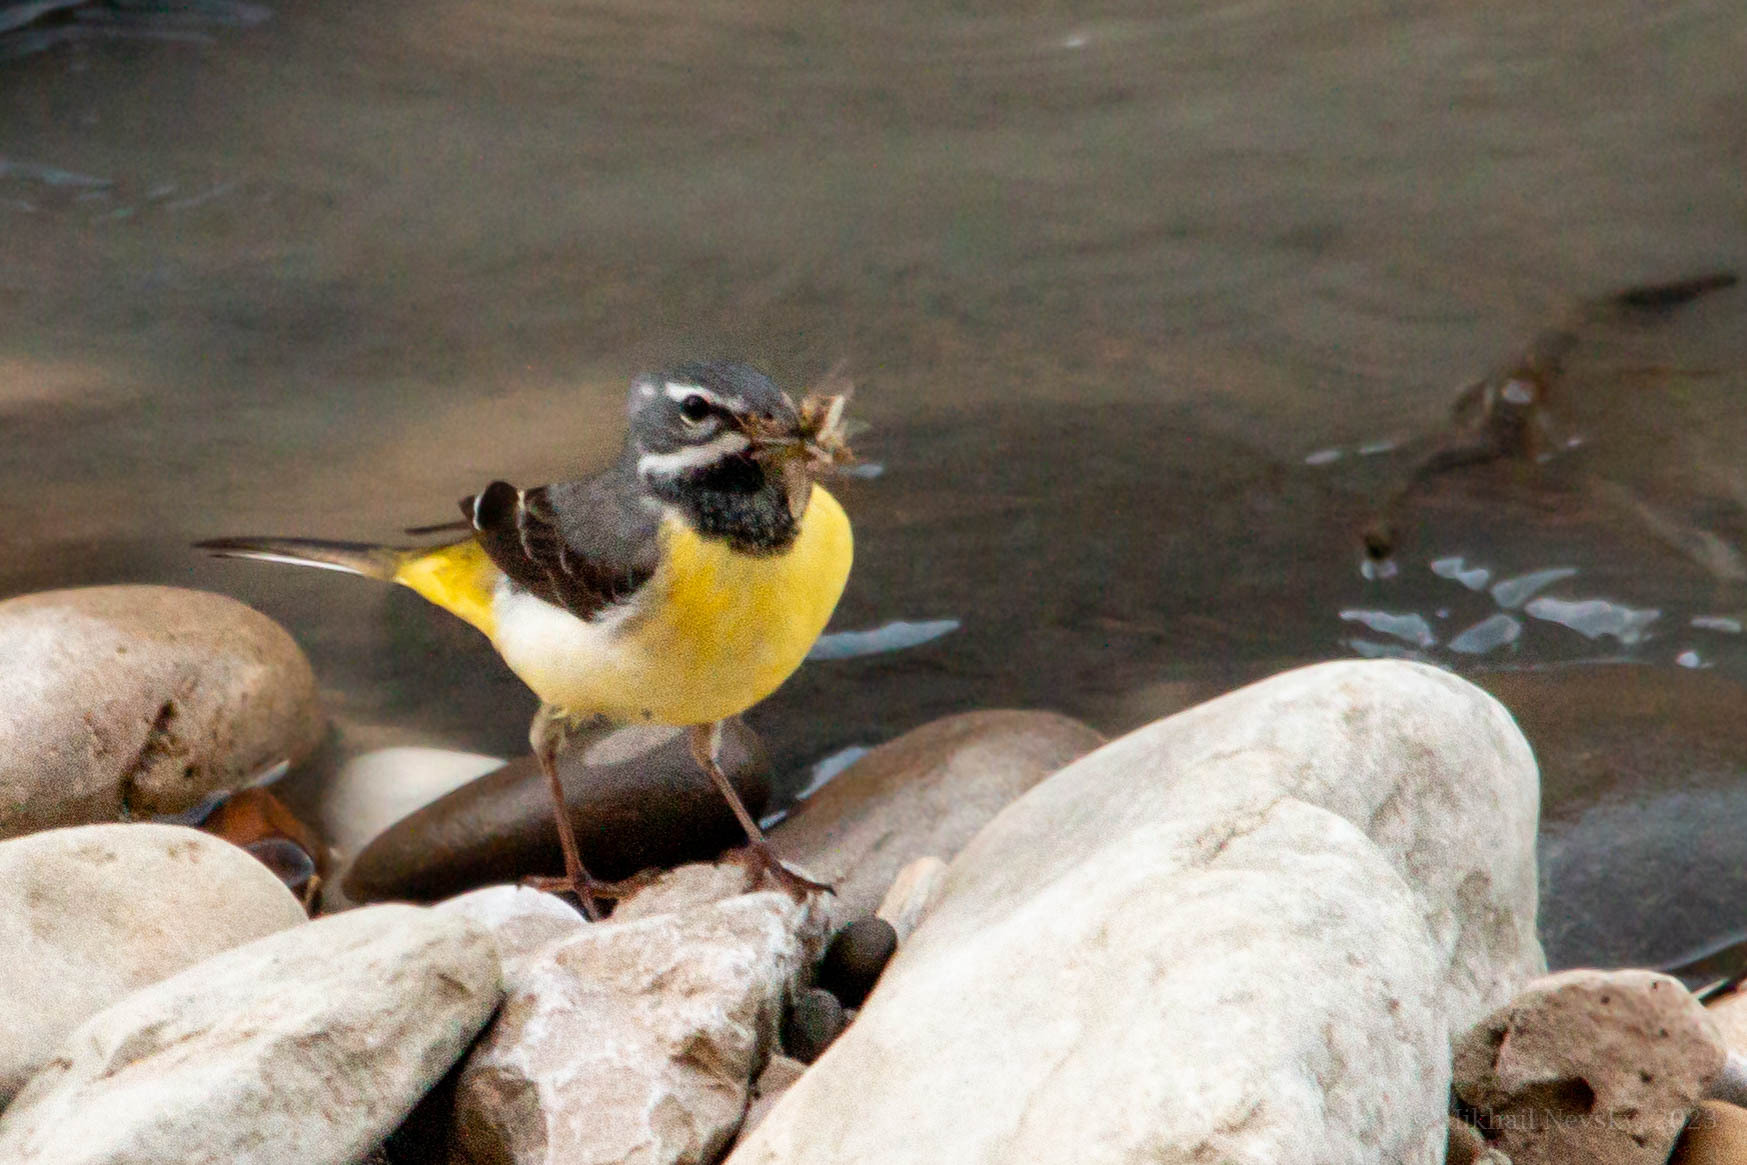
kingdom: Animalia
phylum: Chordata
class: Aves
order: Passeriformes
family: Motacillidae
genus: Motacilla
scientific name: Motacilla cinerea
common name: Grey wagtail
